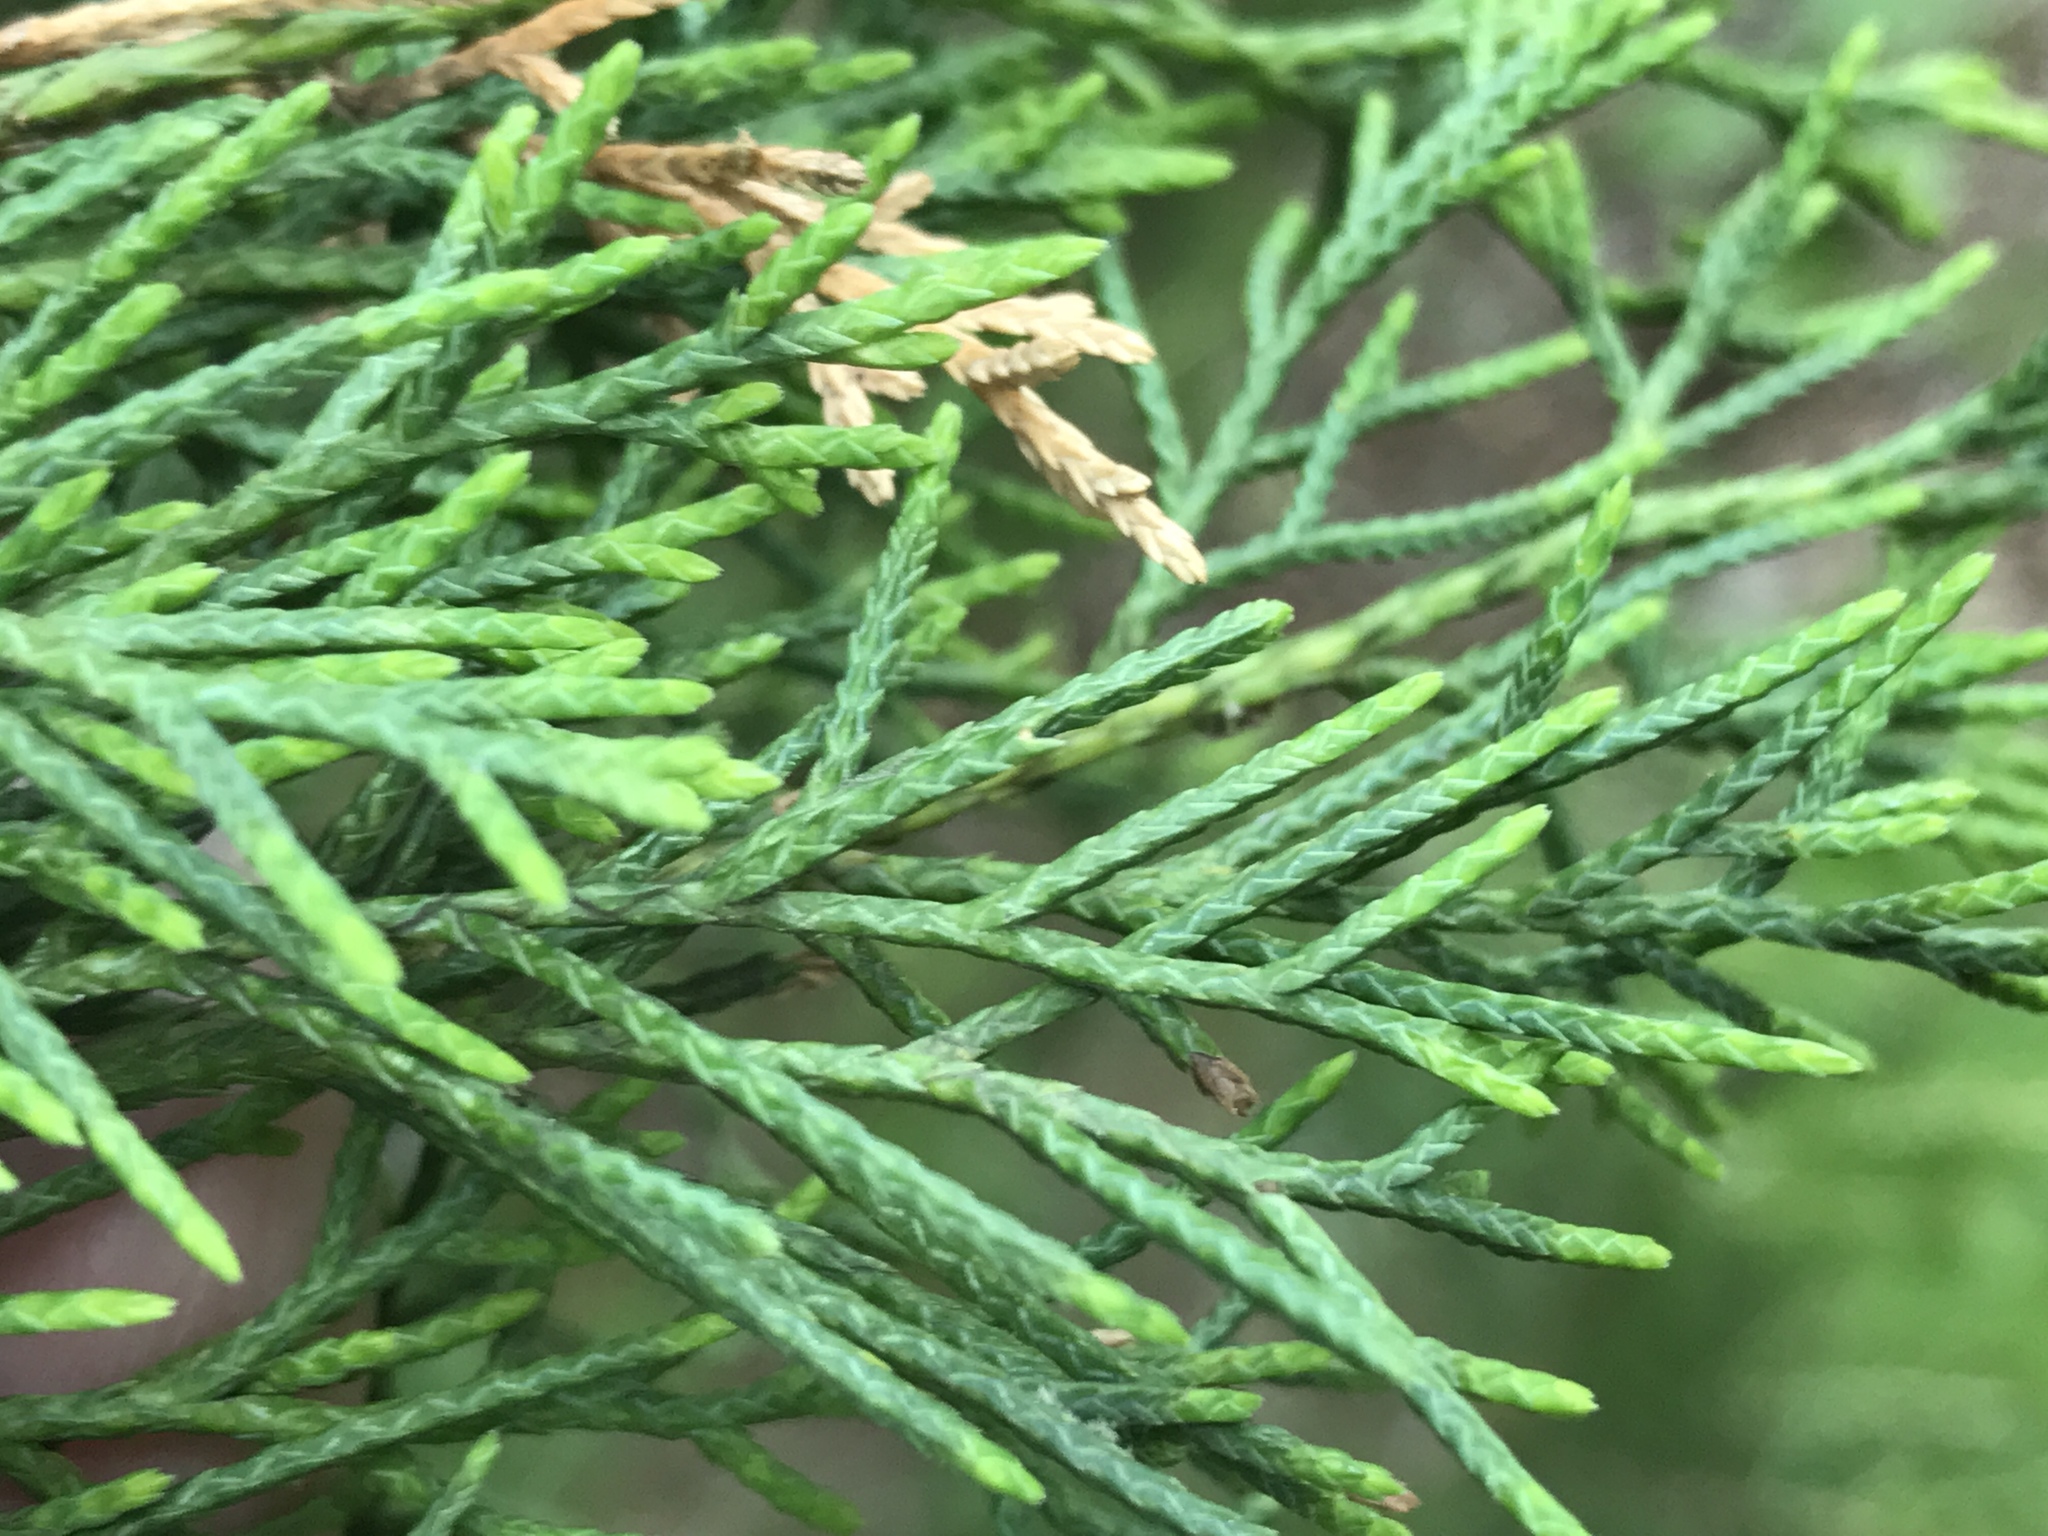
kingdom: Plantae
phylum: Tracheophyta
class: Pinopsida
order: Pinales
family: Cupressaceae
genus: Juniperus
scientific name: Juniperus virginiana
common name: Red juniper
